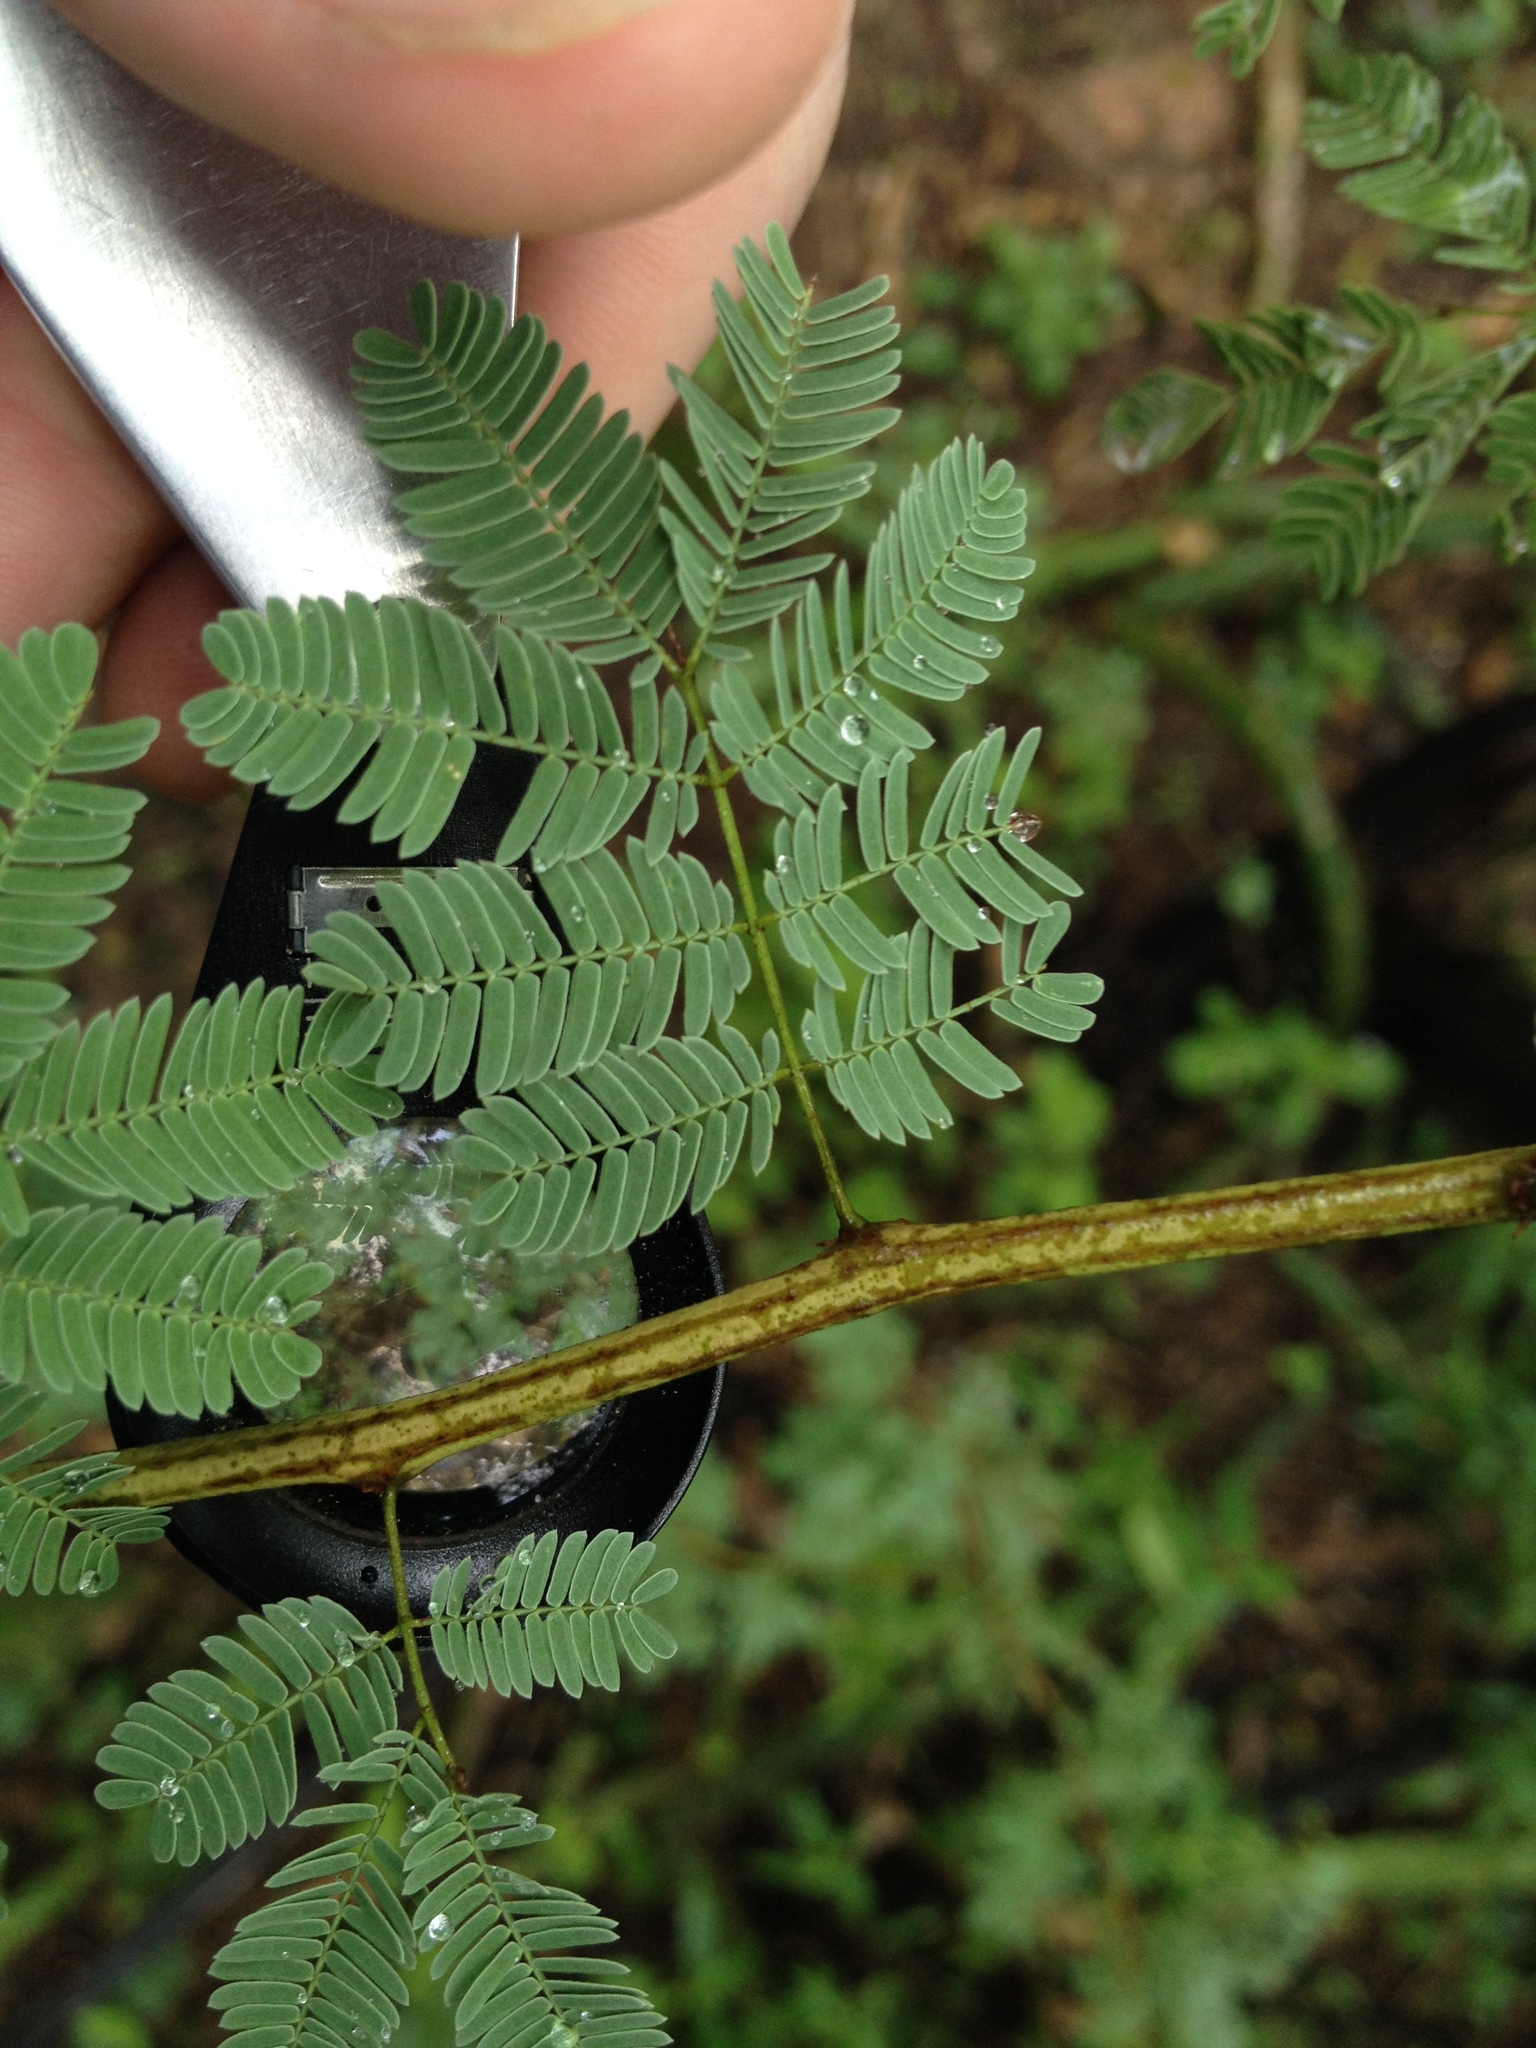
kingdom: Plantae
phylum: Tracheophyta
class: Magnoliopsida
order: Fabales
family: Fabaceae
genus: Senegalia
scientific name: Senegalia gilliesii
